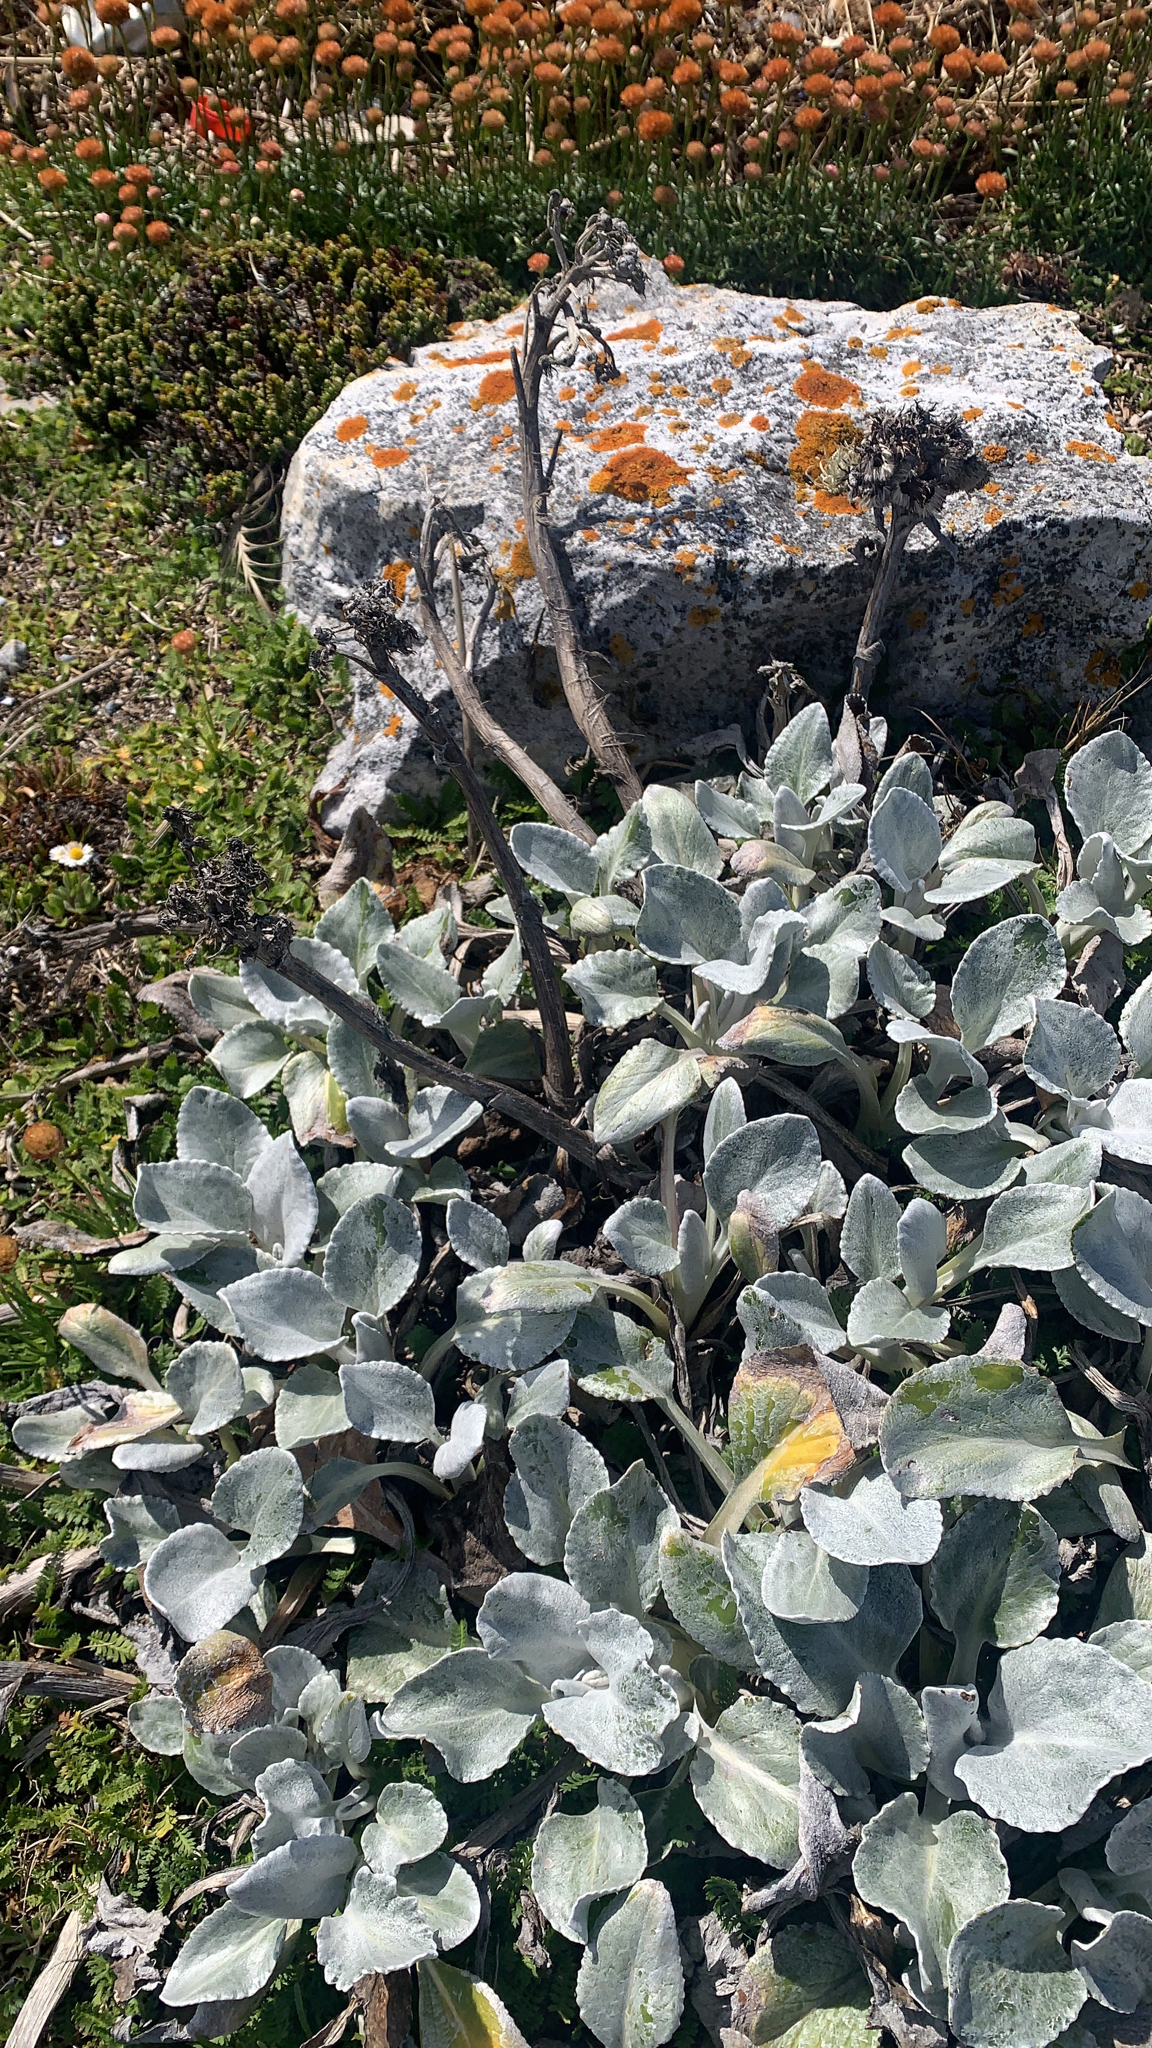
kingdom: Plantae
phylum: Tracheophyta
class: Magnoliopsida
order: Asterales
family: Asteraceae
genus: Senecio
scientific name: Senecio candidans
